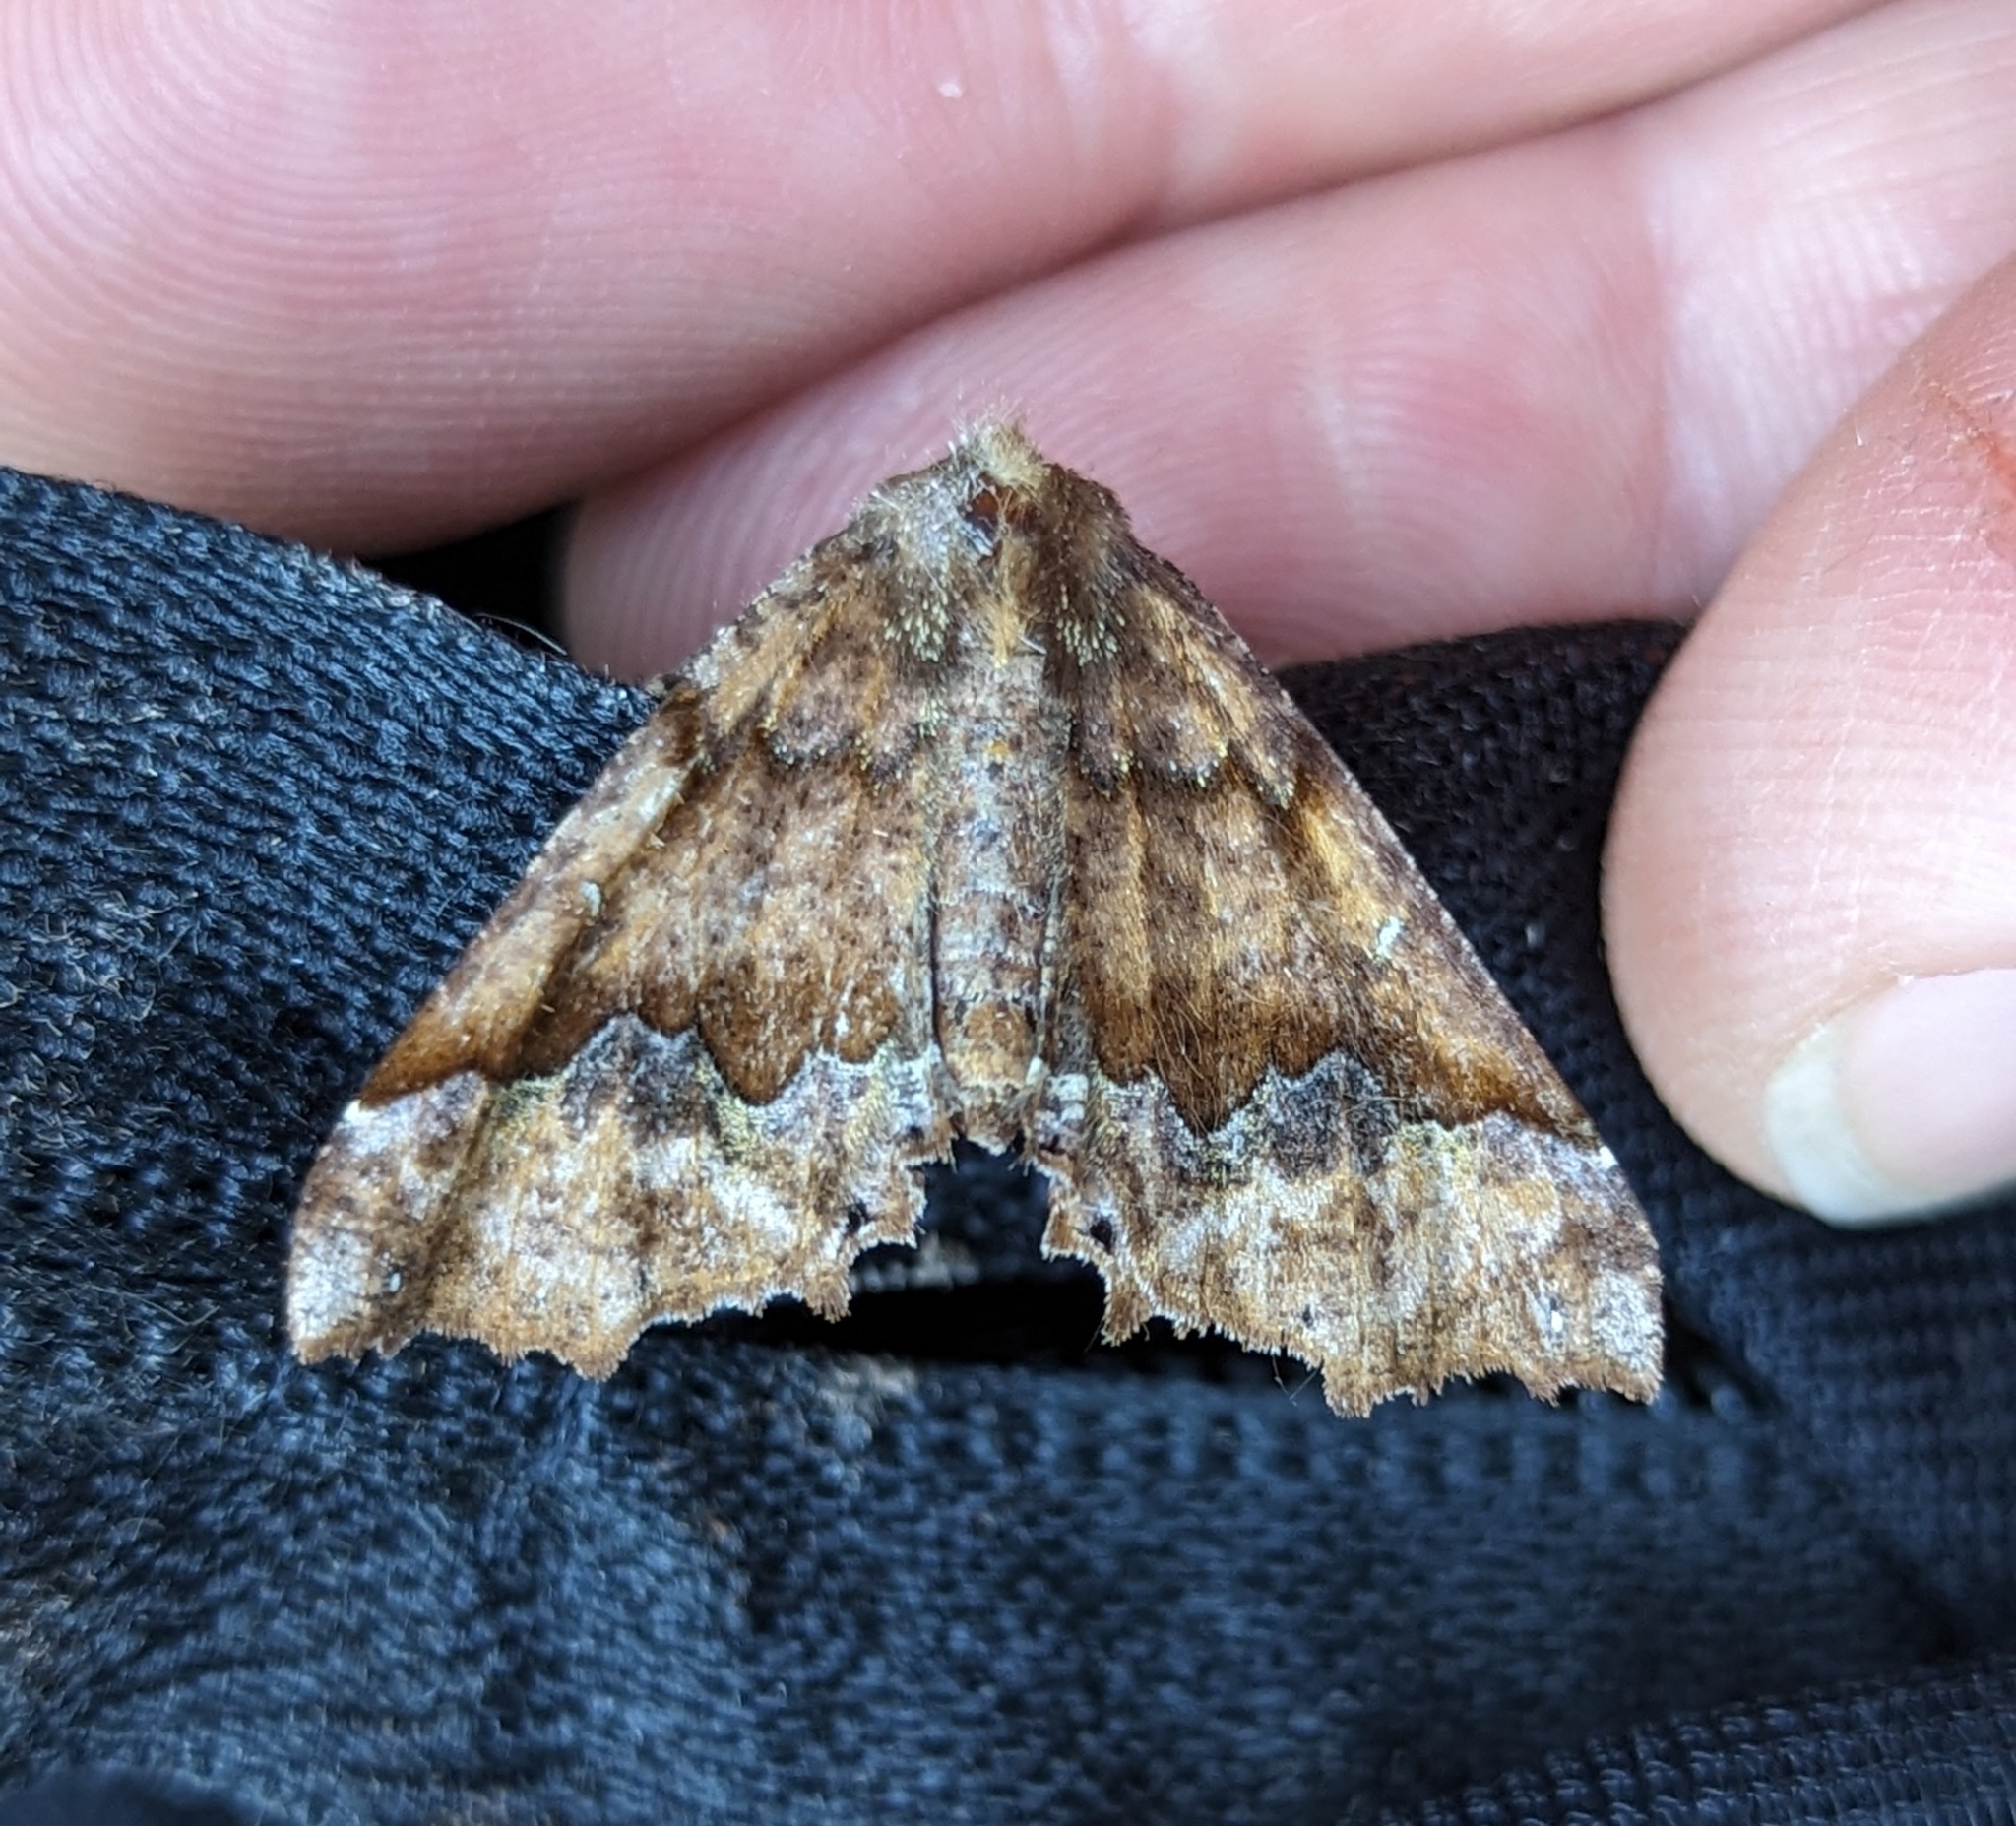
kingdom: Animalia
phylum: Arthropoda
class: Insecta
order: Lepidoptera
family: Geometridae
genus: Pero
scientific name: Pero morrisonaria
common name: Morrison's pero
